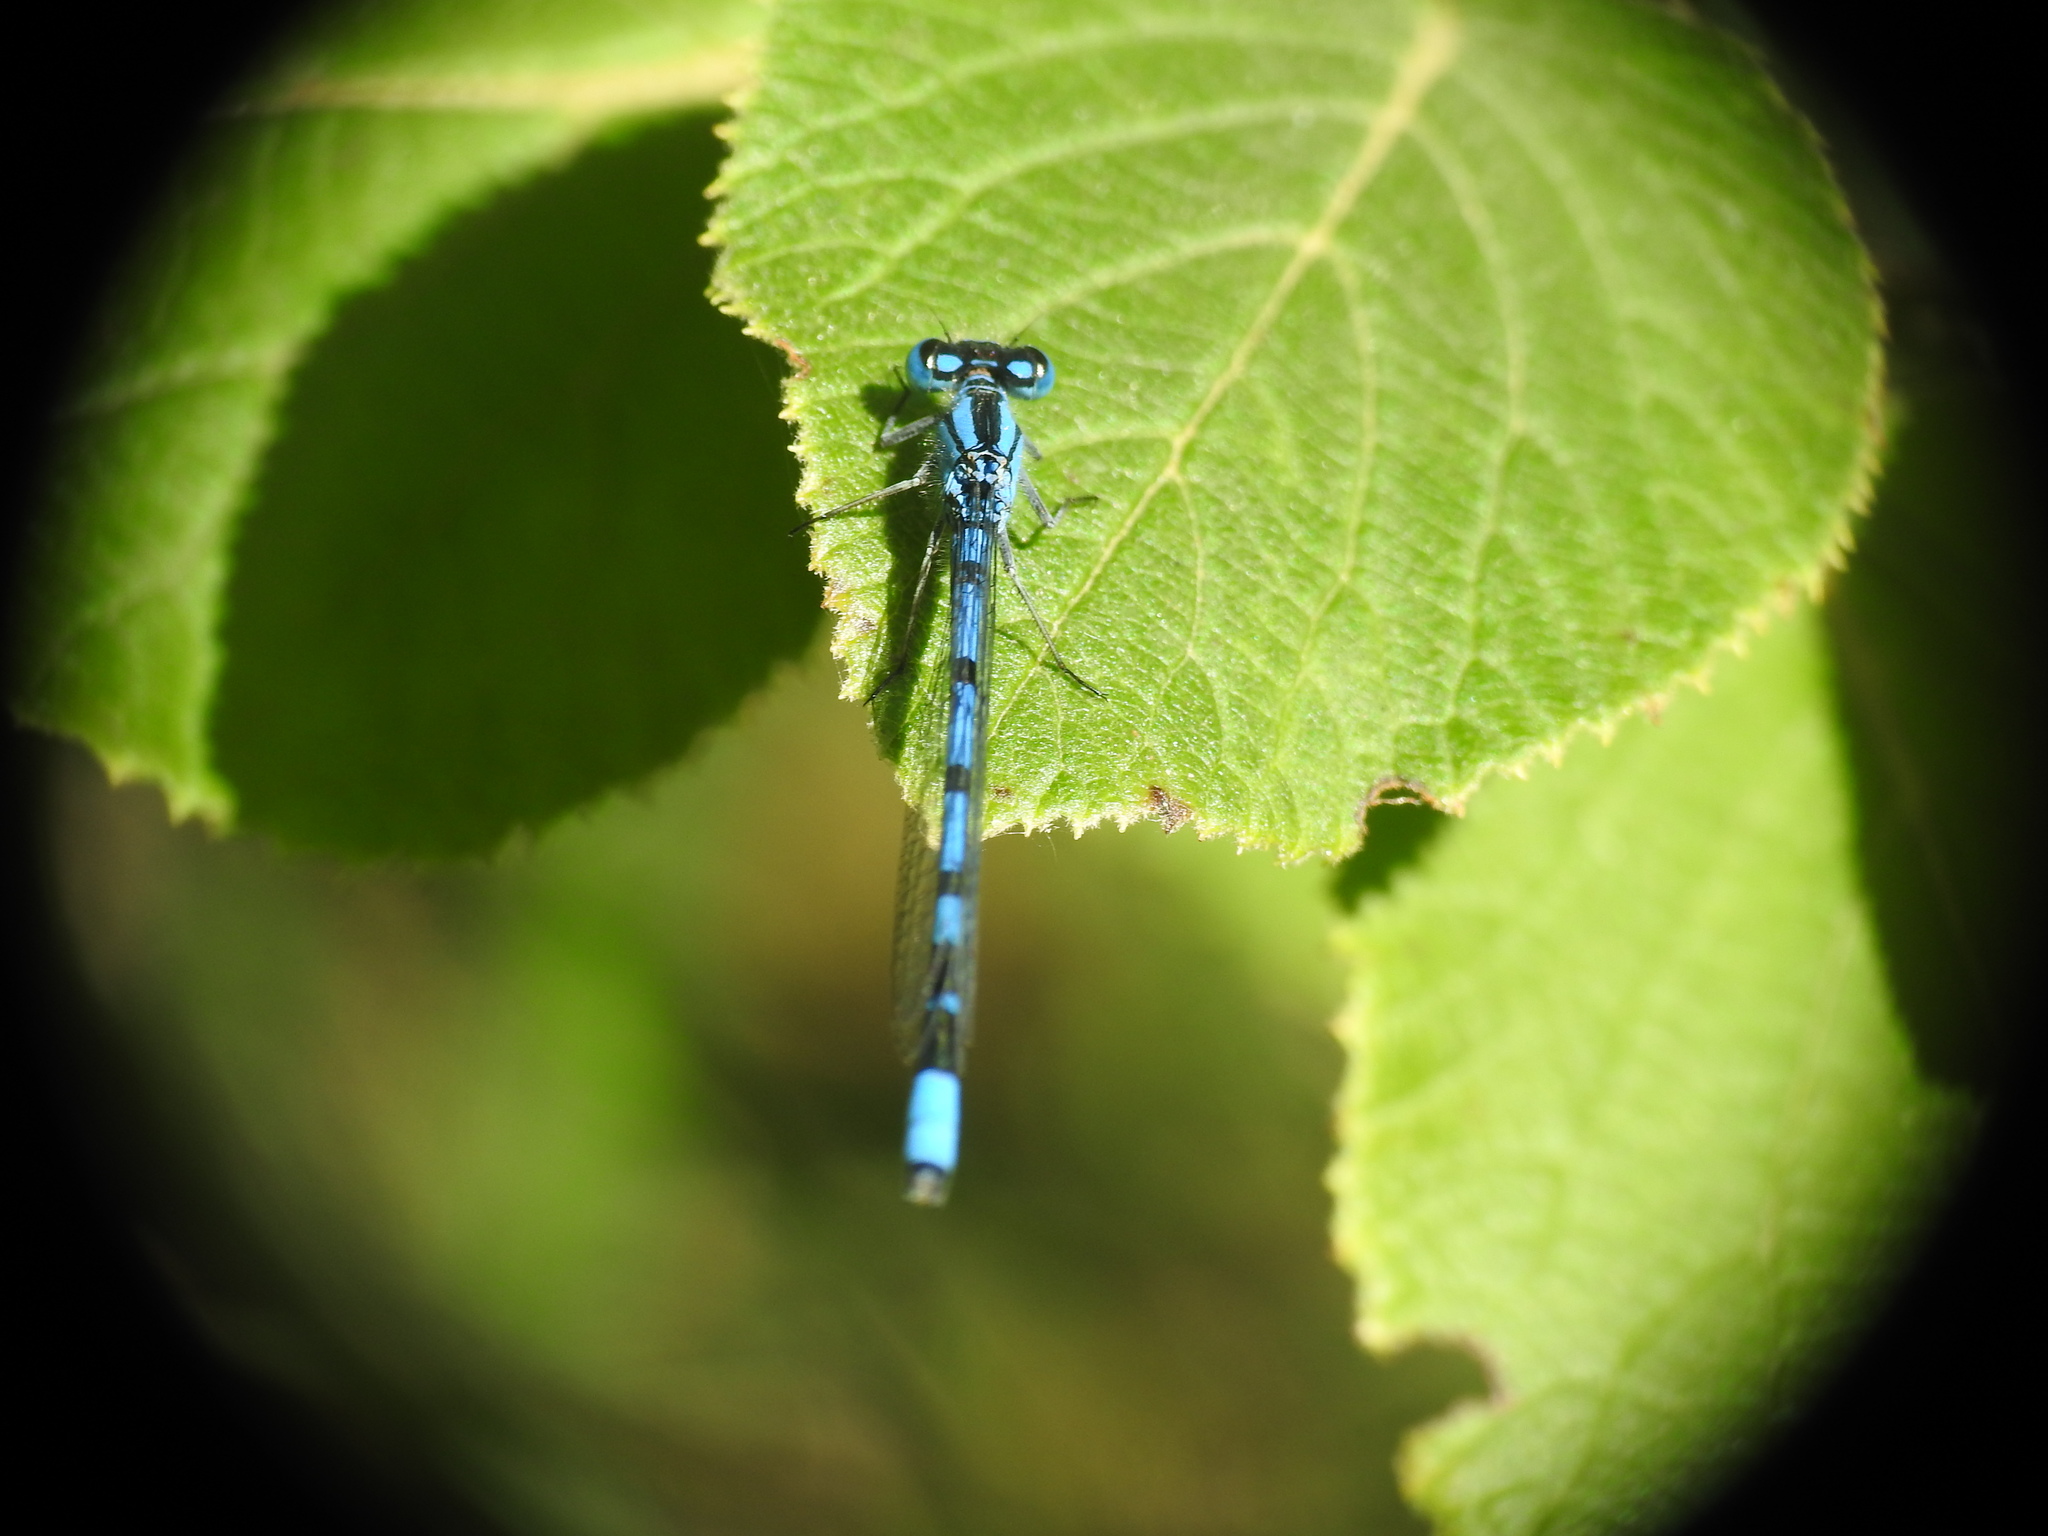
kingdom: Animalia
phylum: Arthropoda
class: Insecta
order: Odonata
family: Coenagrionidae
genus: Enallagma
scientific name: Enallagma cyathigerum
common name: Common blue damselfly
